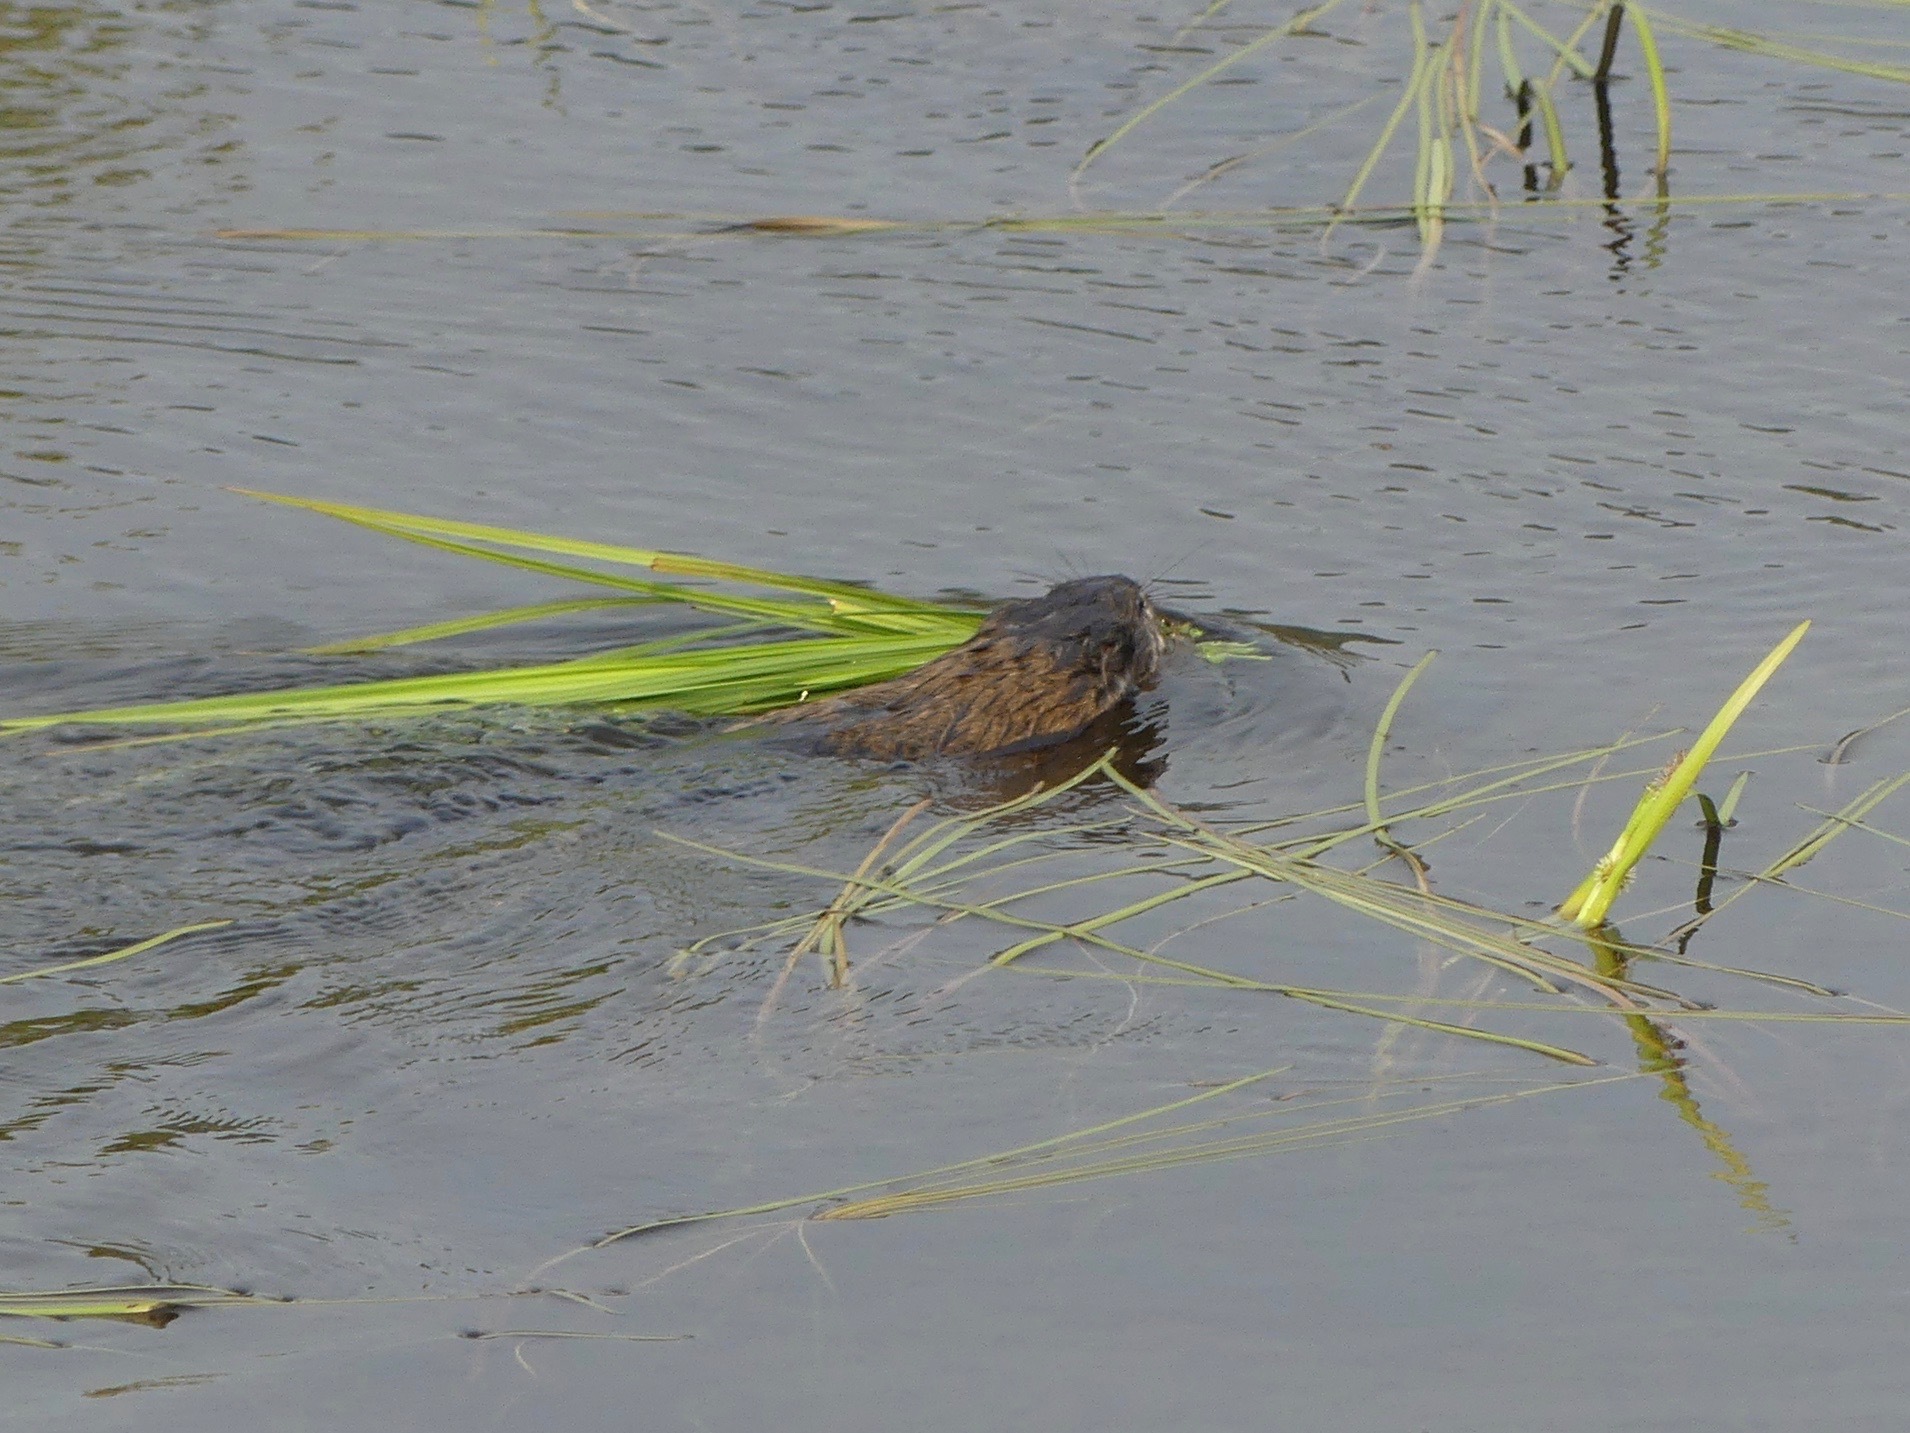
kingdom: Animalia
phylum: Chordata
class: Mammalia
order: Rodentia
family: Cricetidae
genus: Ondatra
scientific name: Ondatra zibethicus
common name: Muskrat
